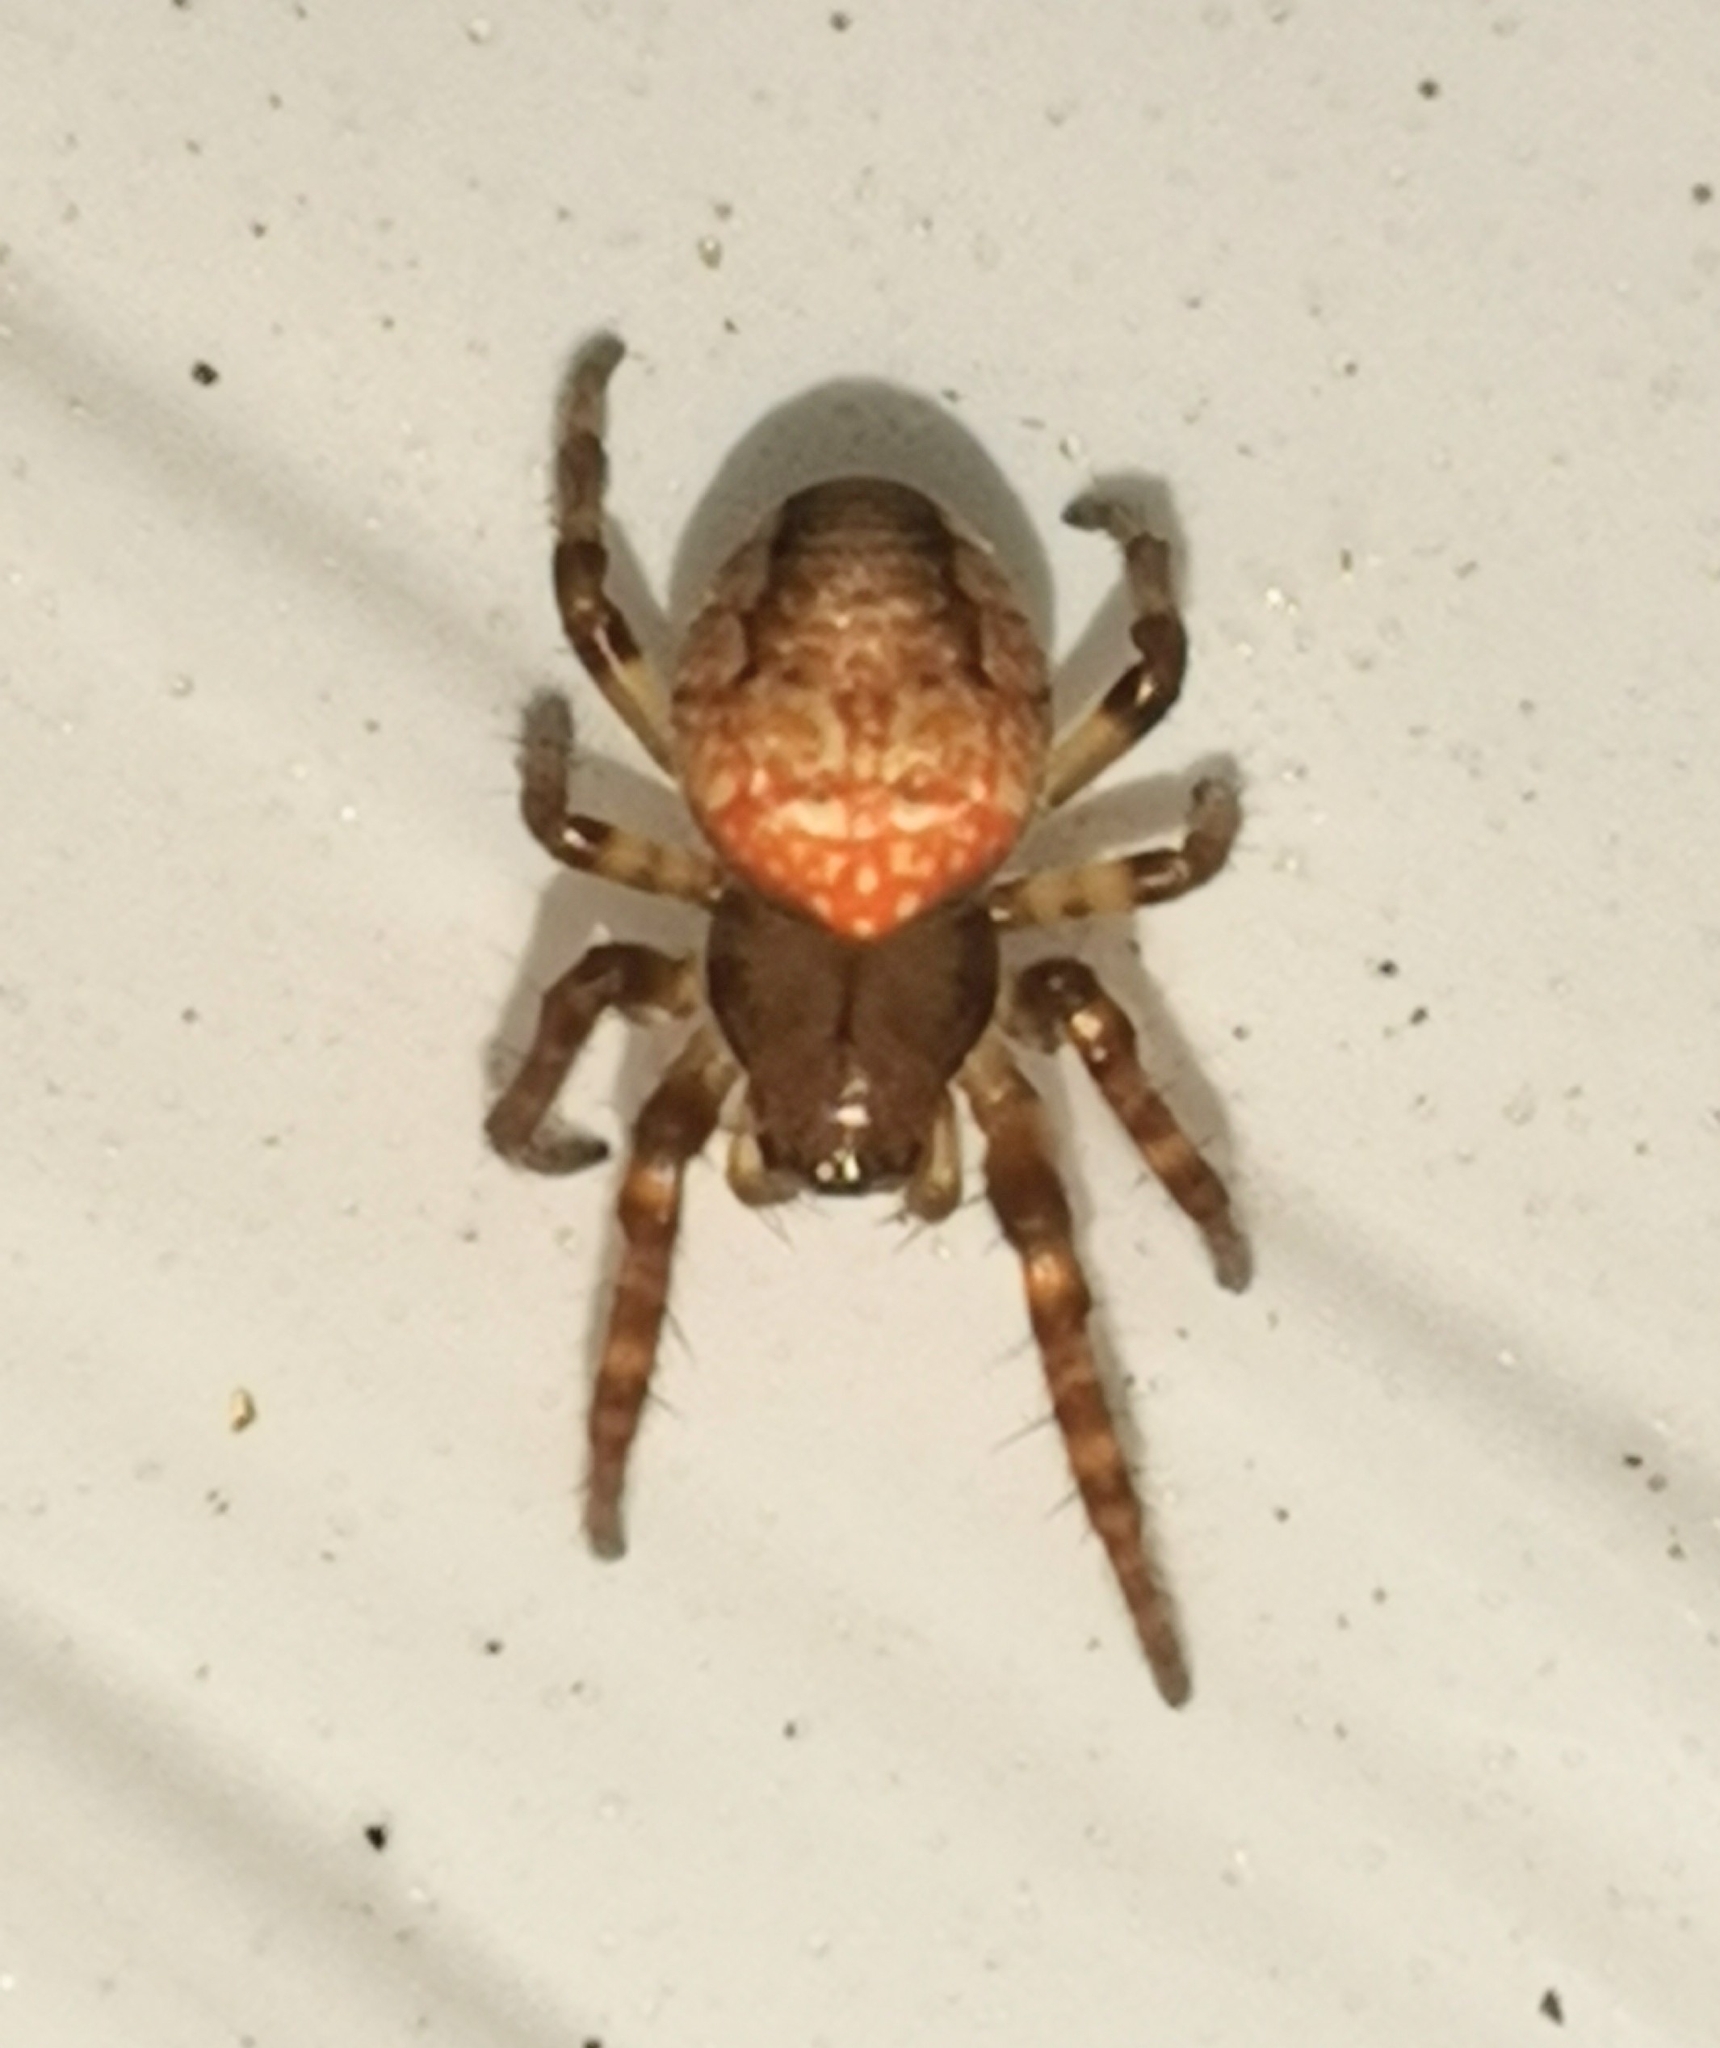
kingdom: Animalia
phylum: Arthropoda
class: Arachnida
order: Araneae
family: Araneidae
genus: Araneus
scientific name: Araneus alsine
